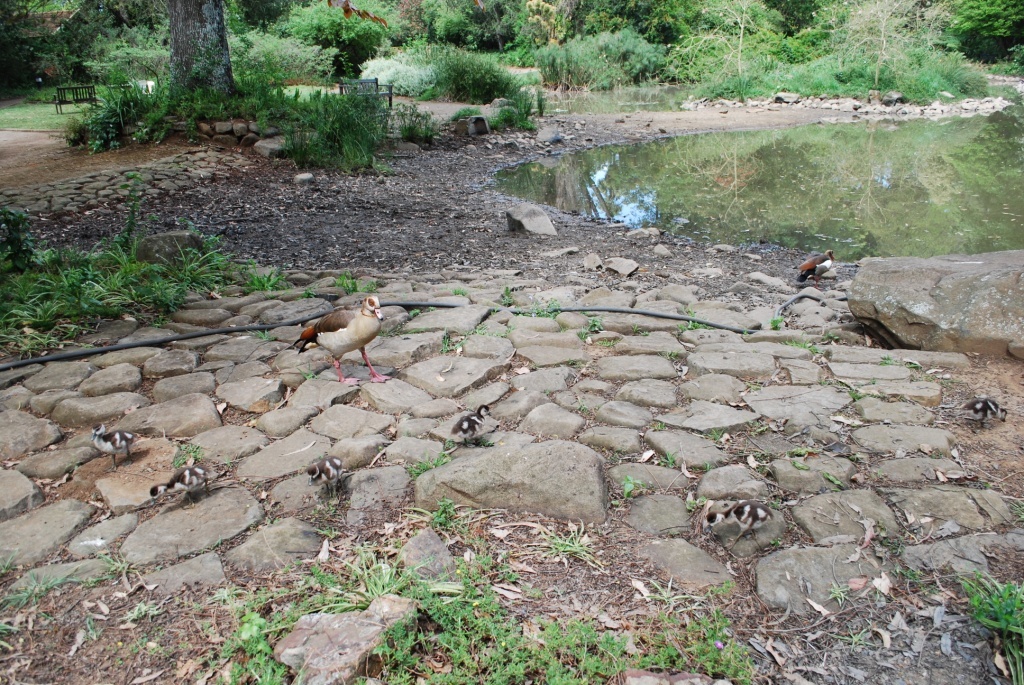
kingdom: Animalia
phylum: Chordata
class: Aves
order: Anseriformes
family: Anatidae
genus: Alopochen
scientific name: Alopochen aegyptiaca
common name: Egyptian goose
